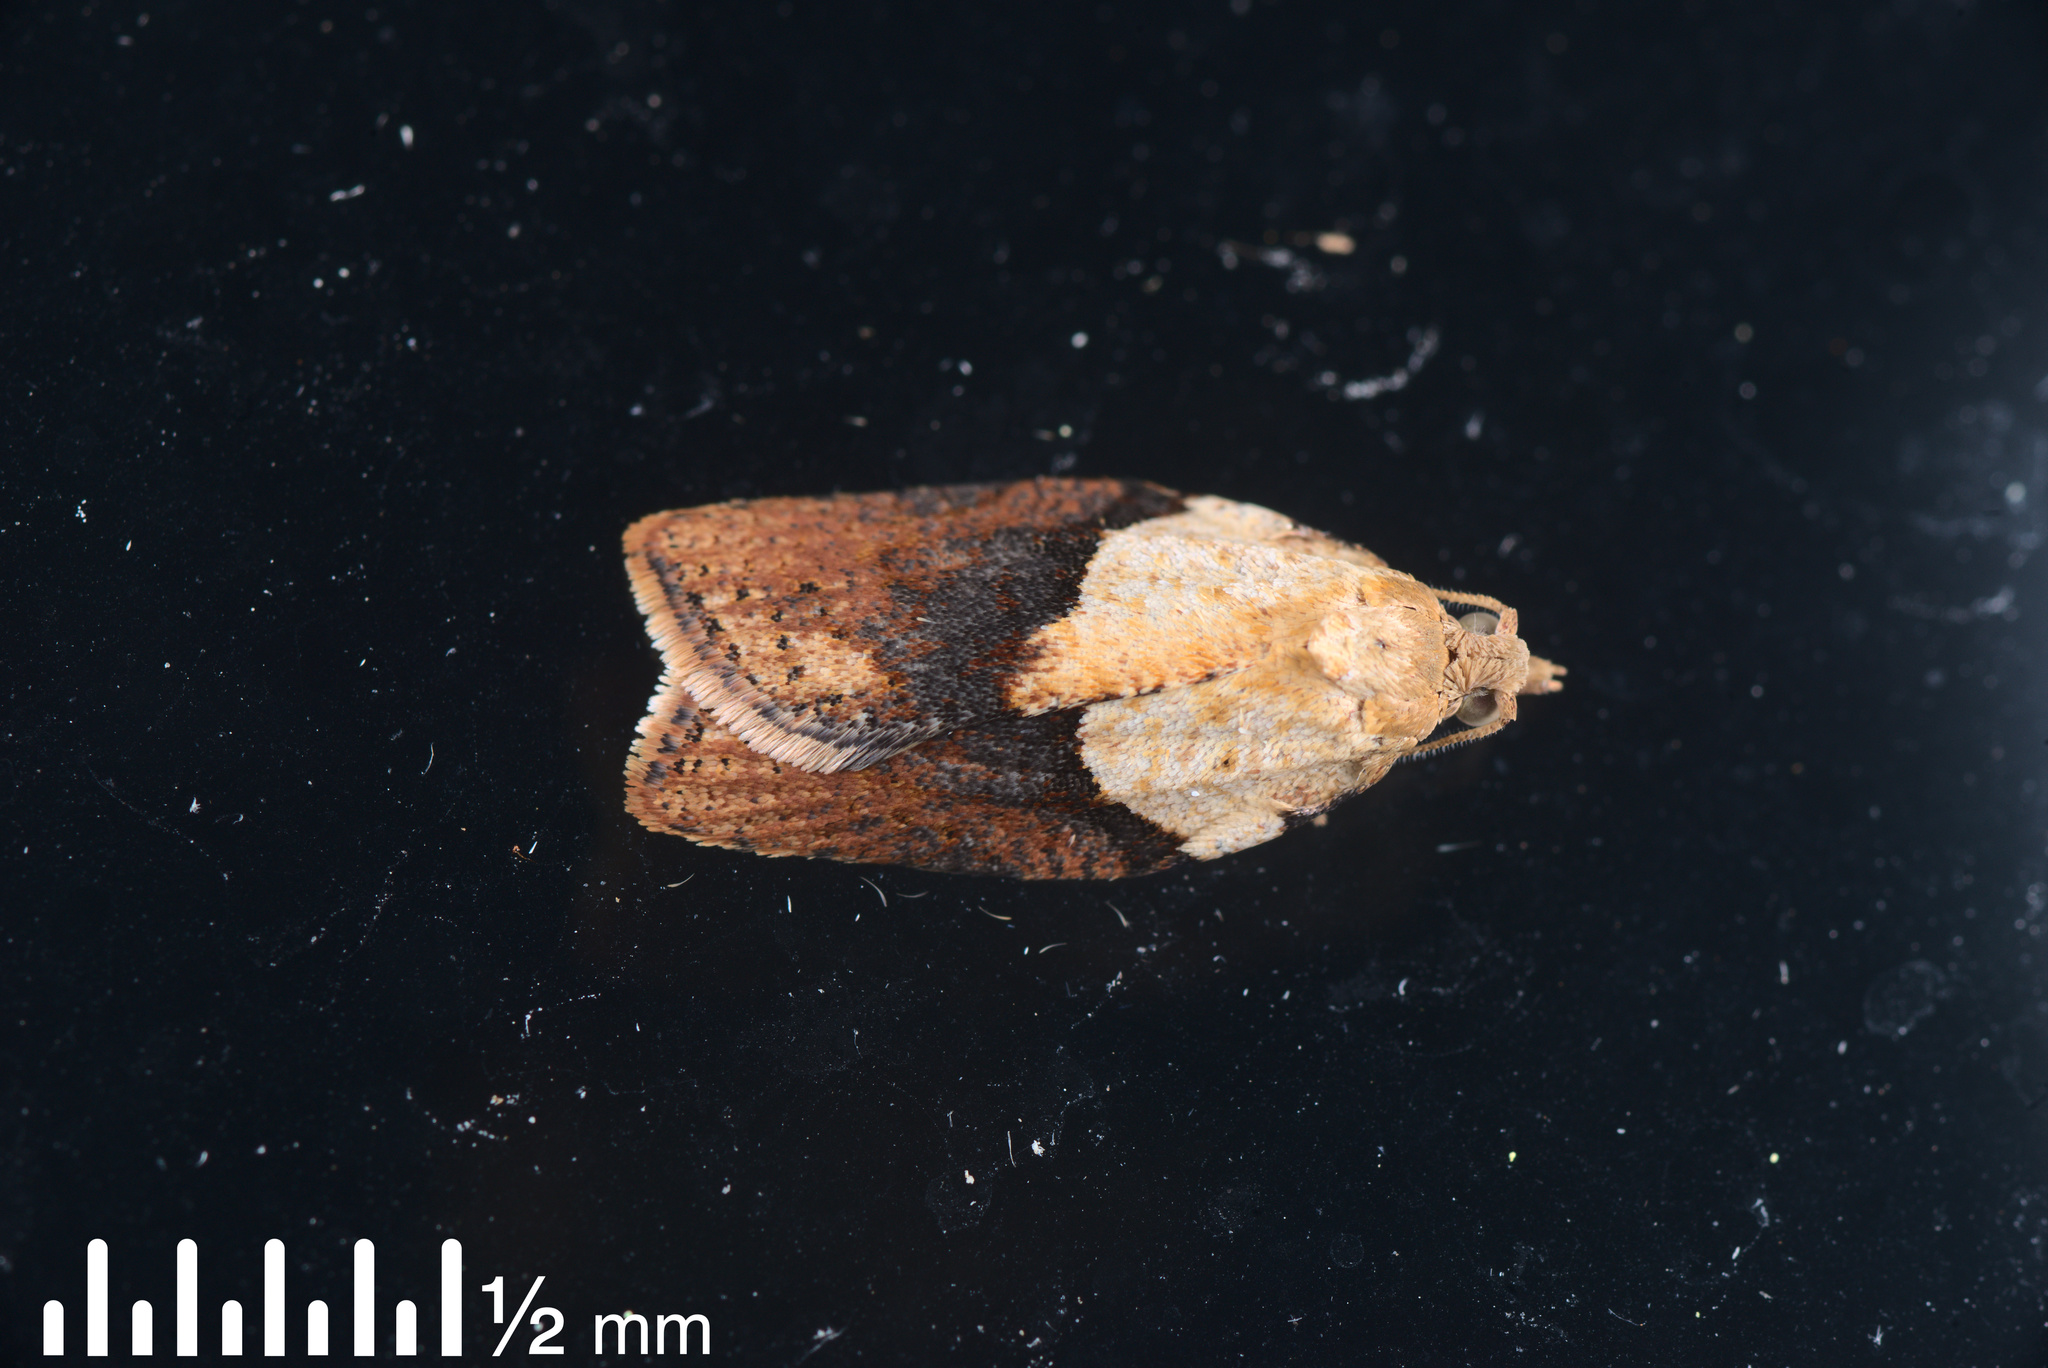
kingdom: Animalia
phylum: Arthropoda
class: Insecta
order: Lepidoptera
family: Tortricidae
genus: Epiphyas
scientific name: Epiphyas postvittana
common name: Light brown apple moth
